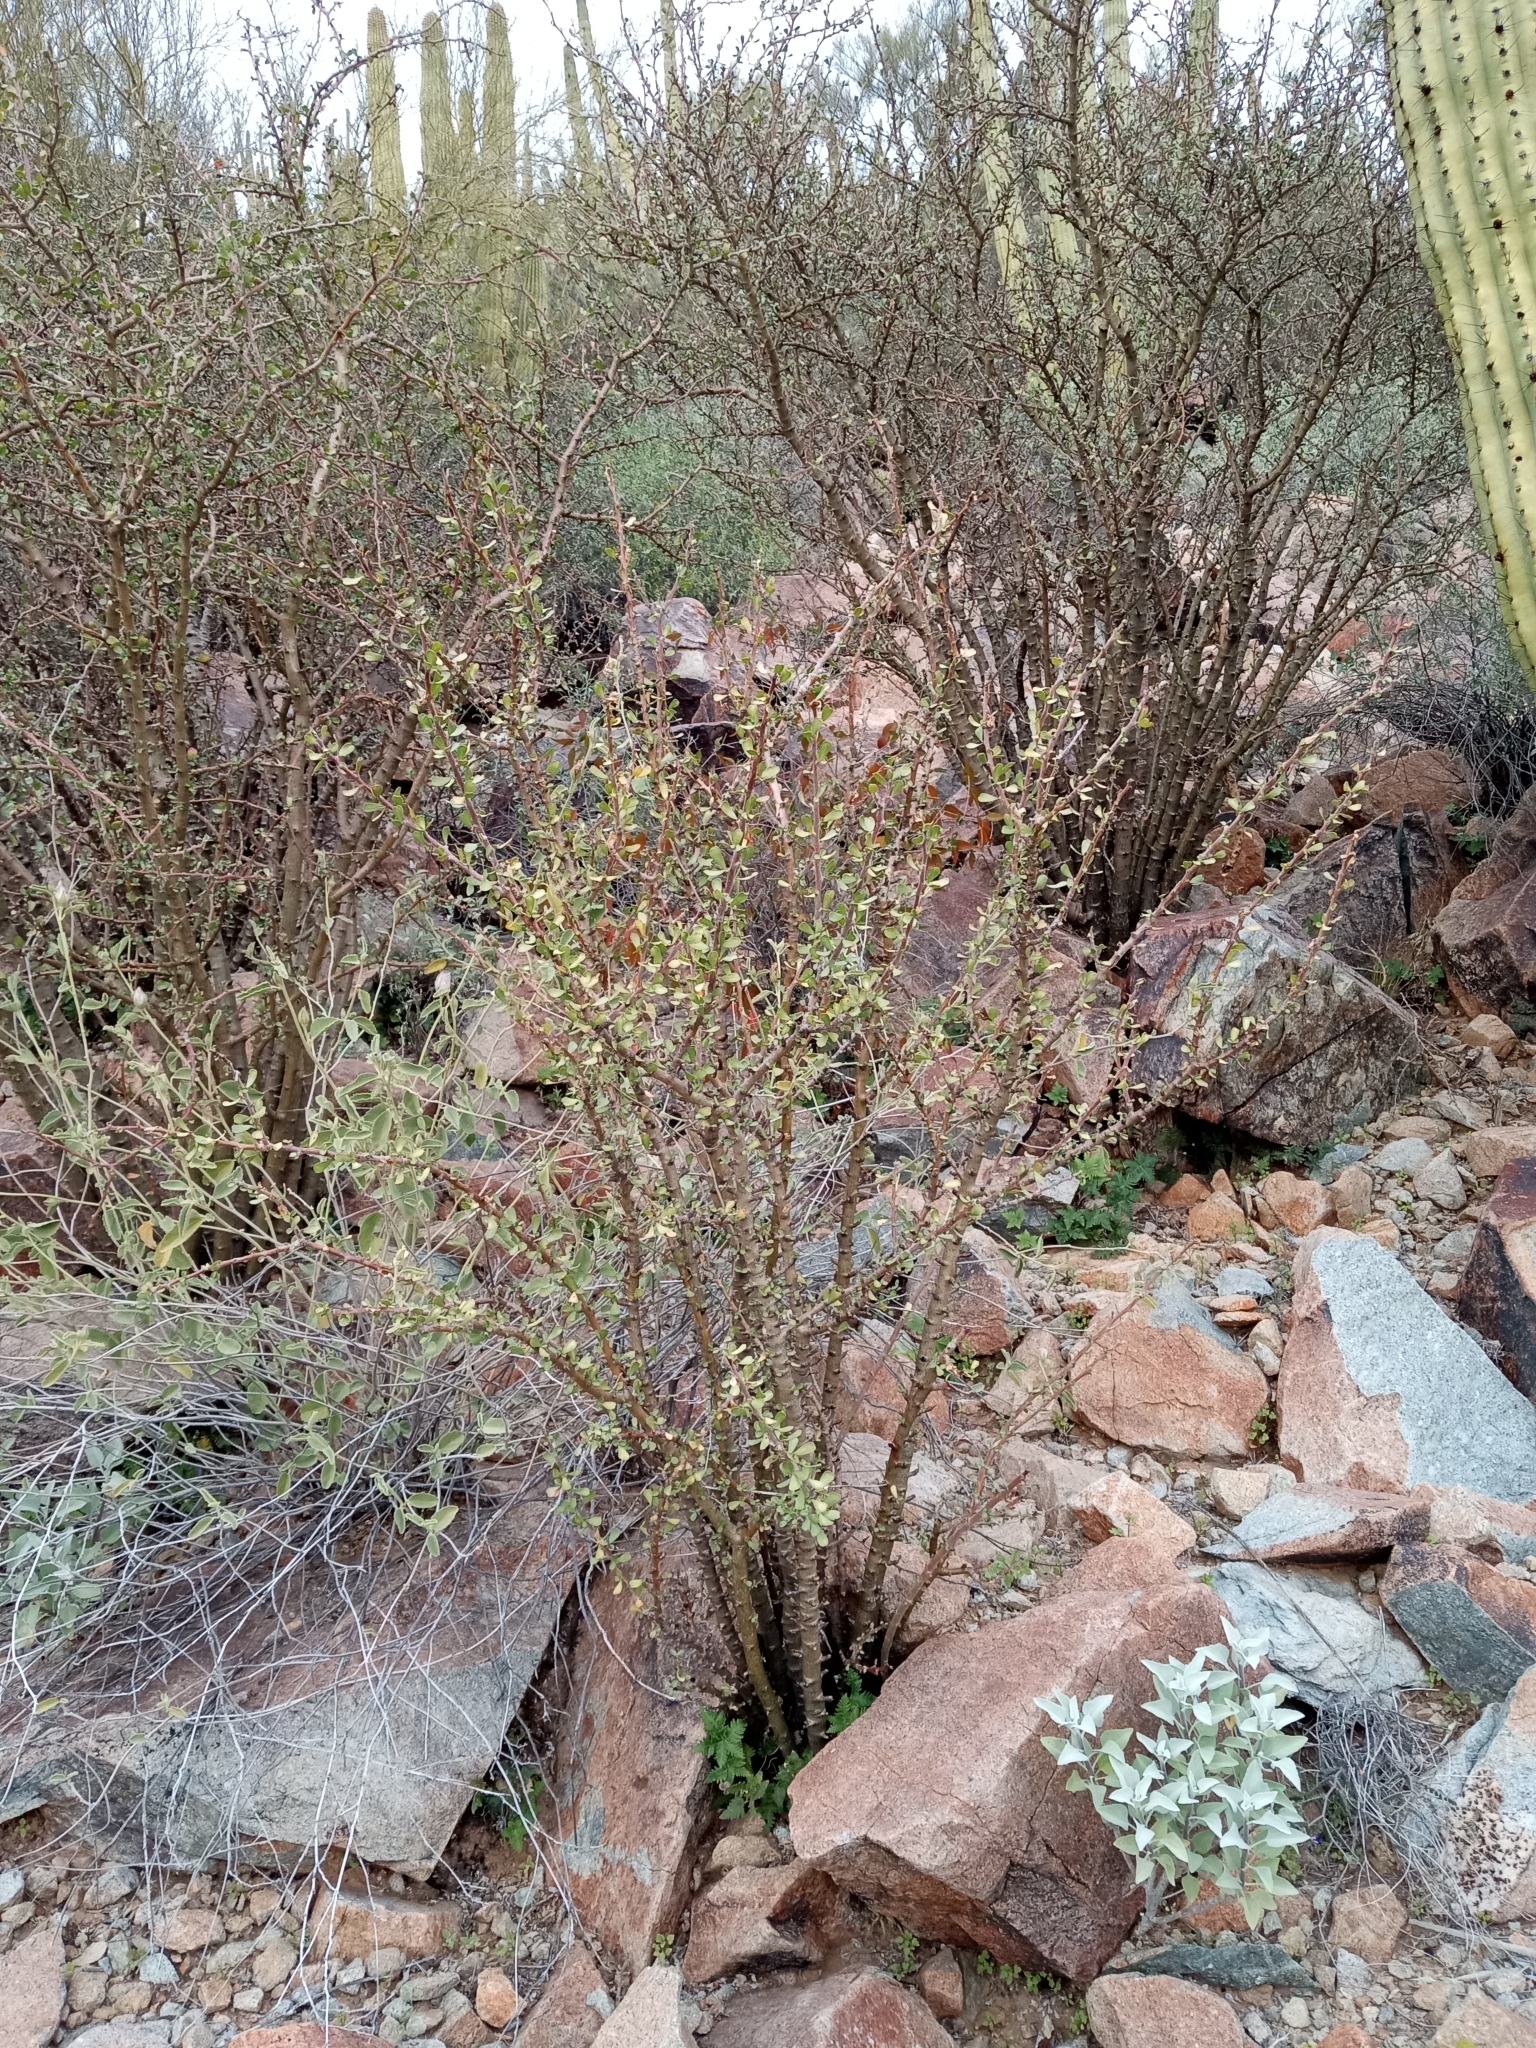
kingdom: Plantae
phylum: Tracheophyta
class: Magnoliopsida
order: Malpighiales
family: Euphorbiaceae
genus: Jatropha
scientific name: Jatropha cuneata
